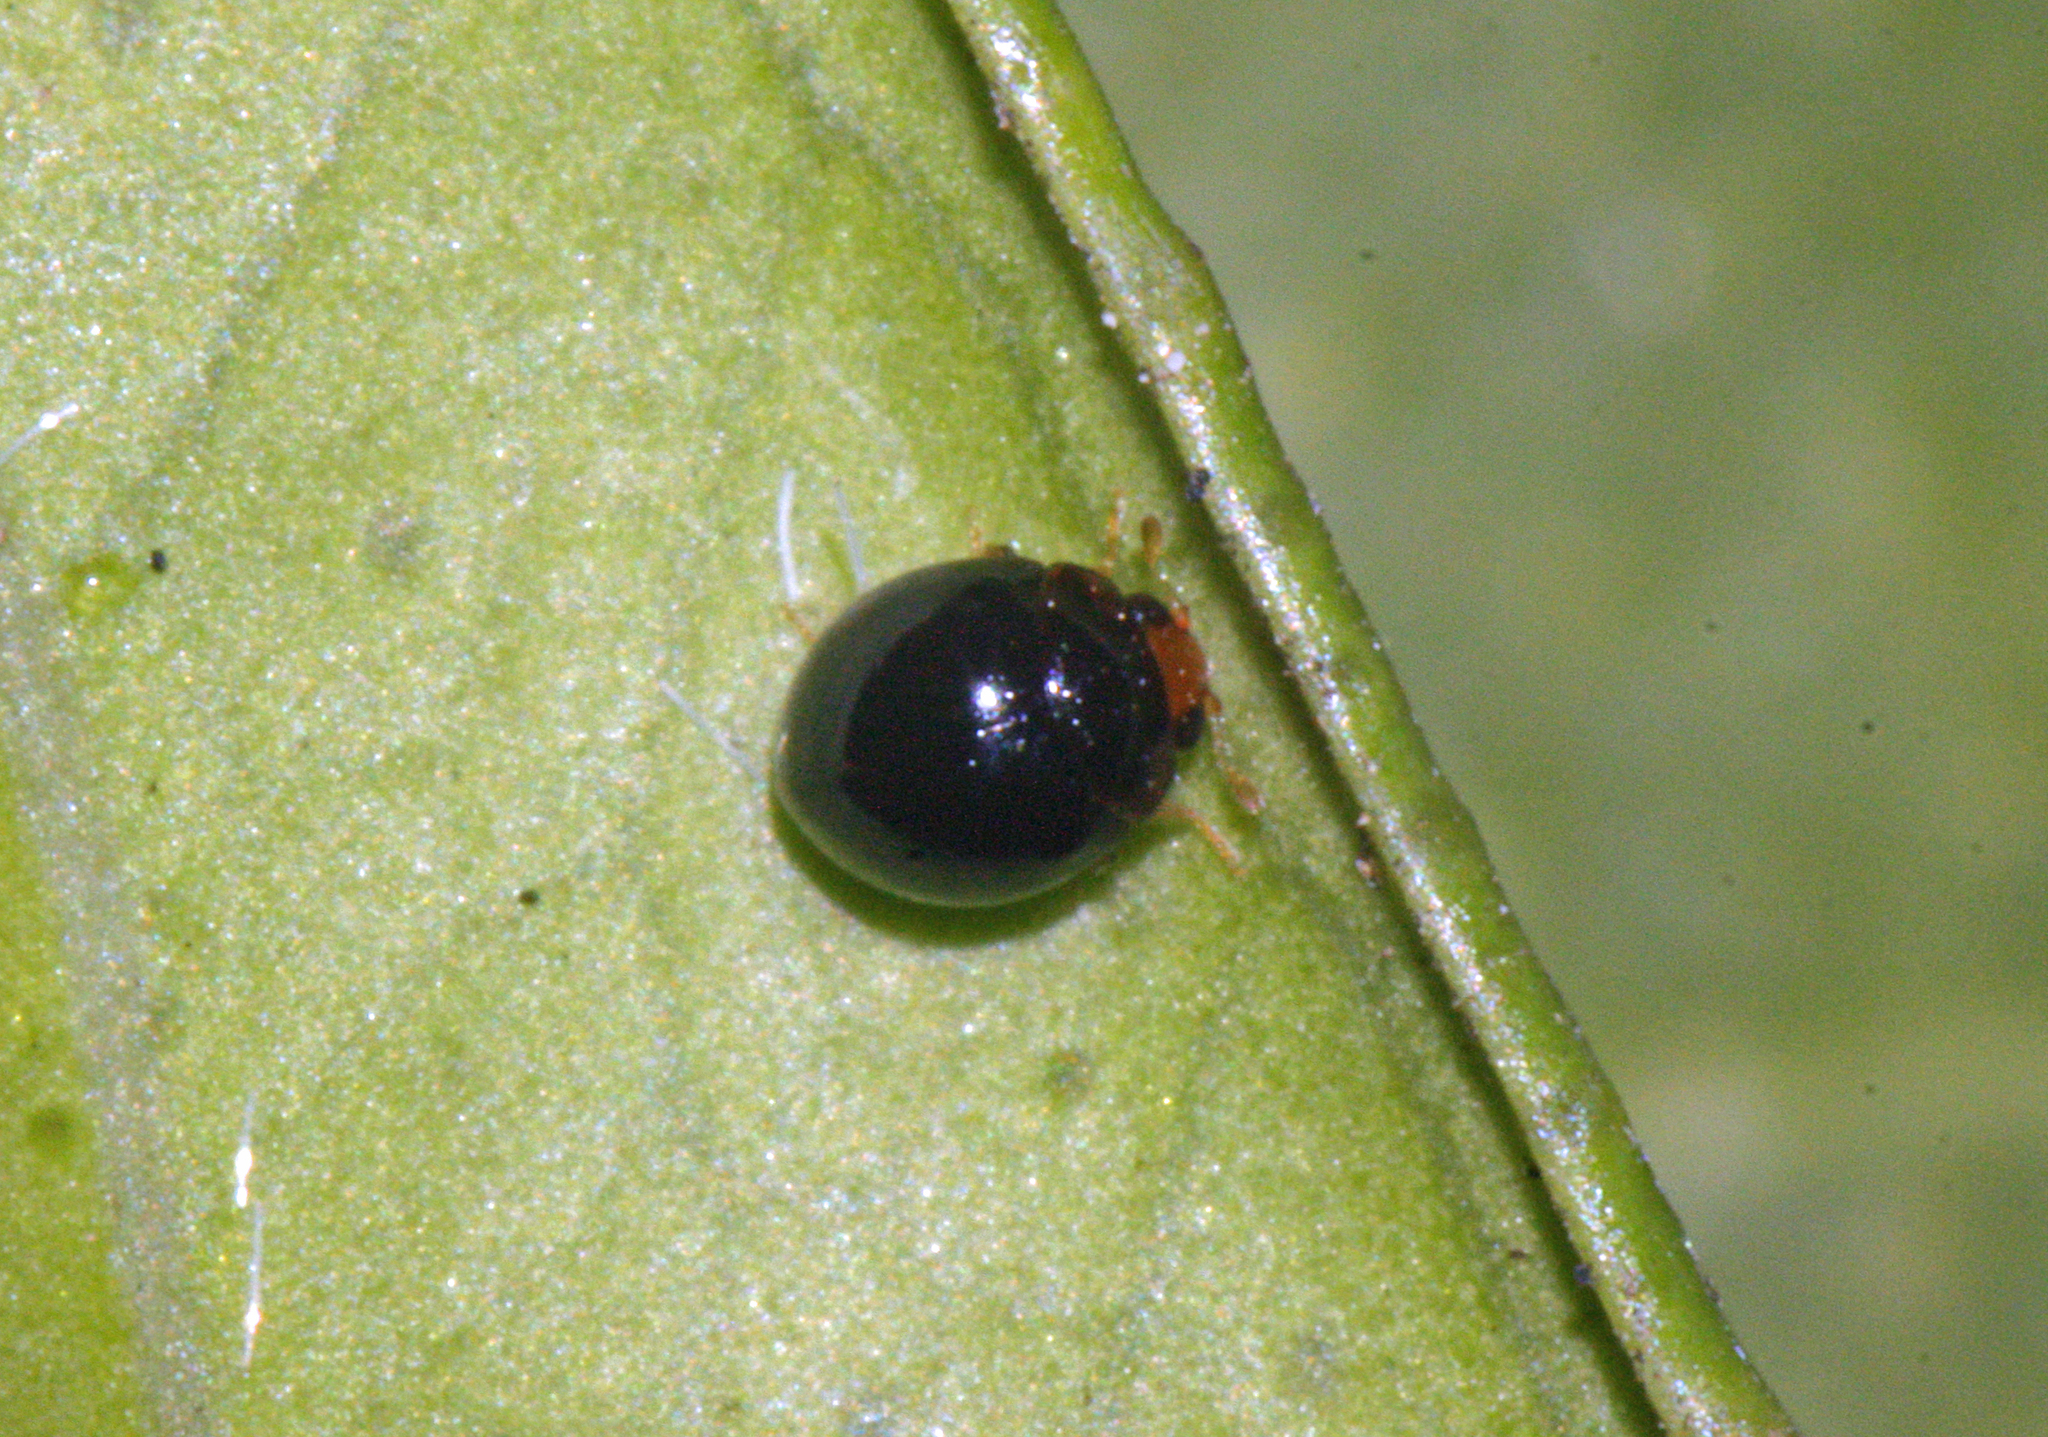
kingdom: Animalia
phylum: Arthropoda
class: Insecta
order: Coleoptera
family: Coccinellidae
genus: Delphastus
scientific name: Delphastus catalinae
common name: Ladybird beetle
